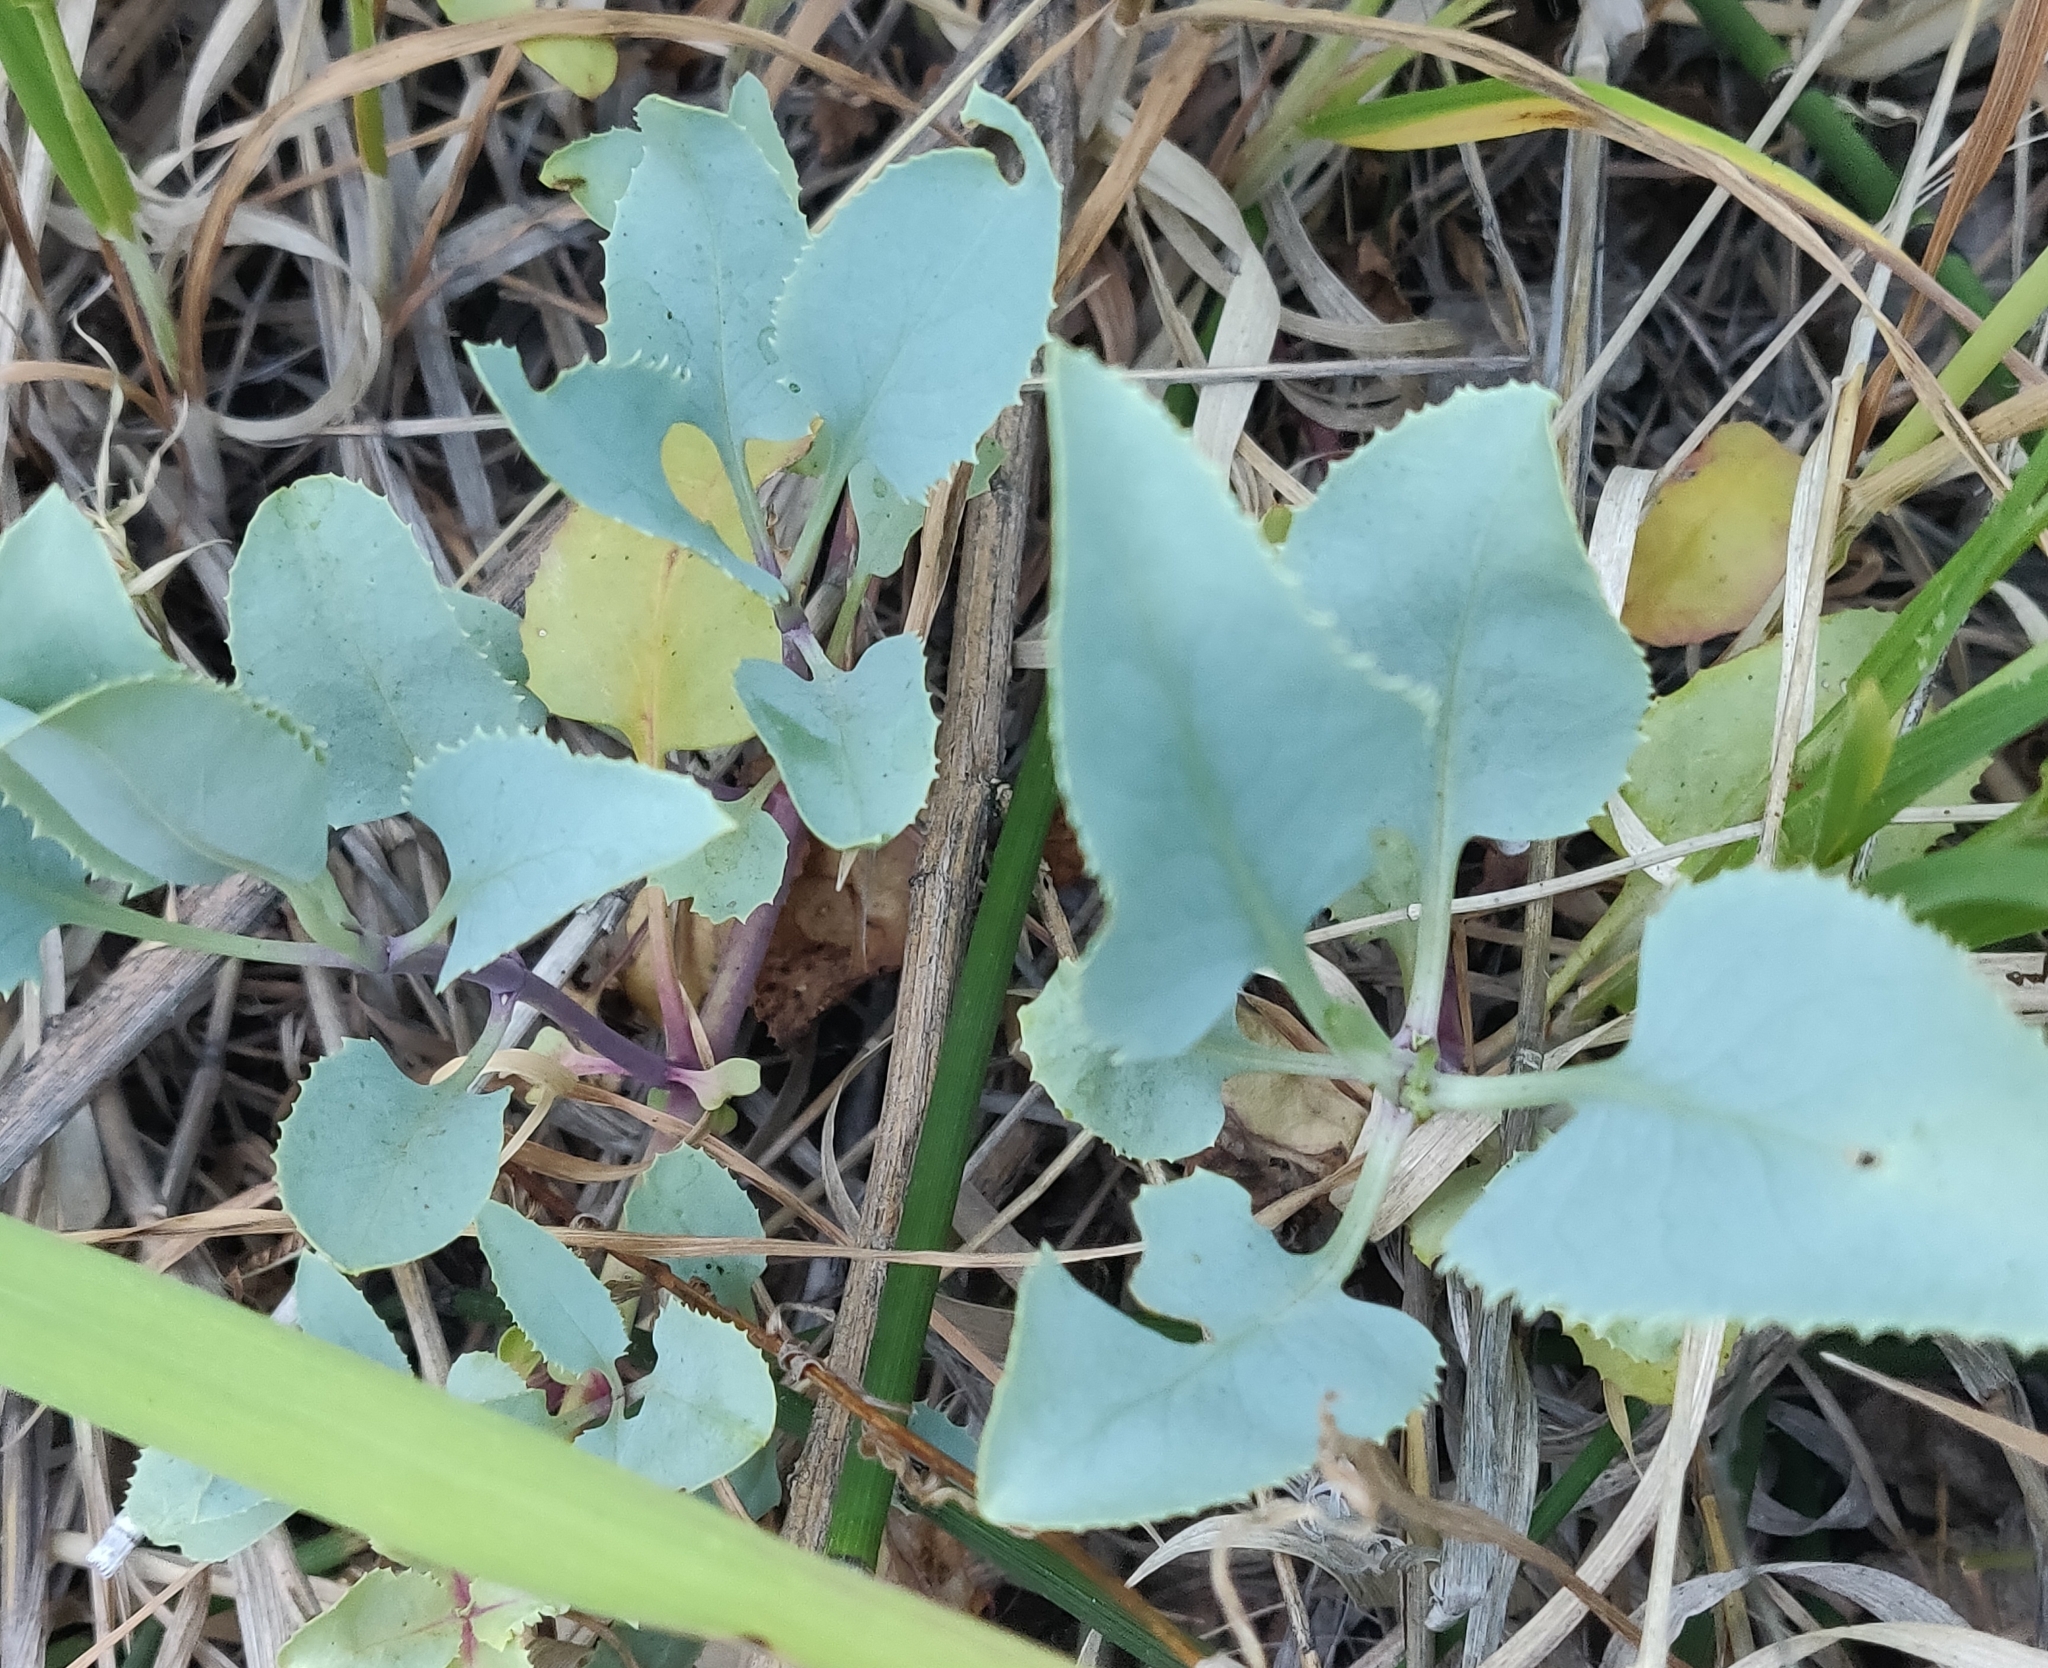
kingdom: Plantae
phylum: Tracheophyta
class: Magnoliopsida
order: Lamiales
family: Plantaginaceae
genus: Penstemon
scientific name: Penstemon palmeri
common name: Palmer penstemon
